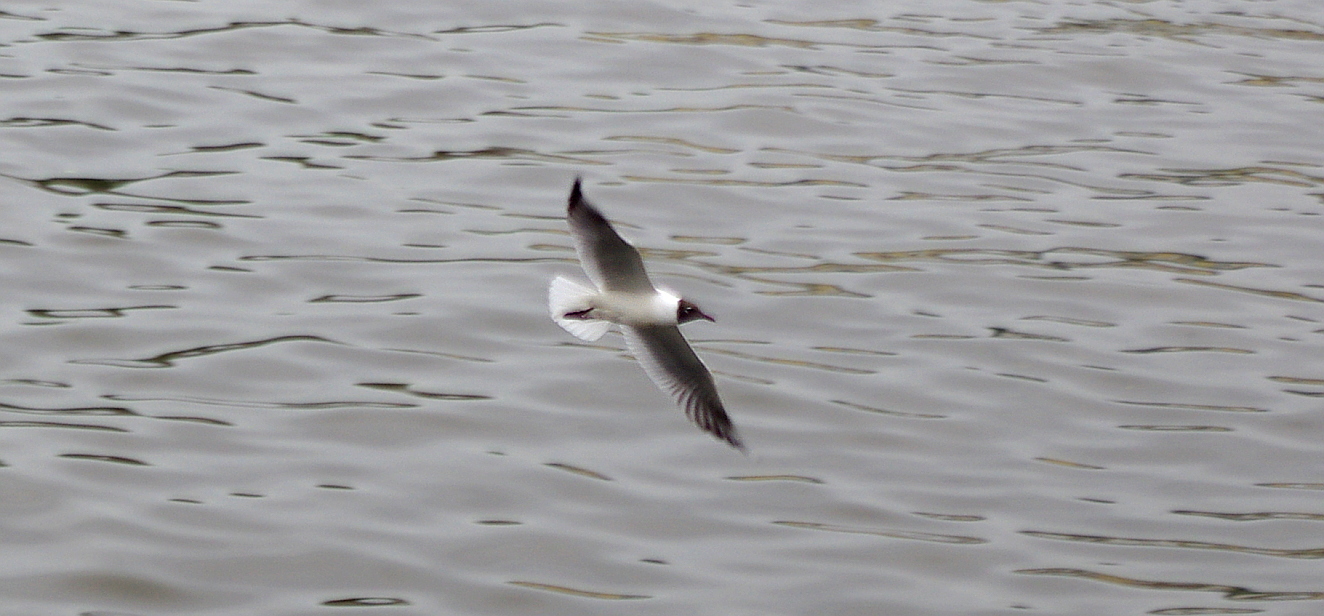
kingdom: Animalia
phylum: Chordata
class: Aves
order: Charadriiformes
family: Laridae
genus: Chroicocephalus
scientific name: Chroicocephalus ridibundus
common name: Black-headed gull
